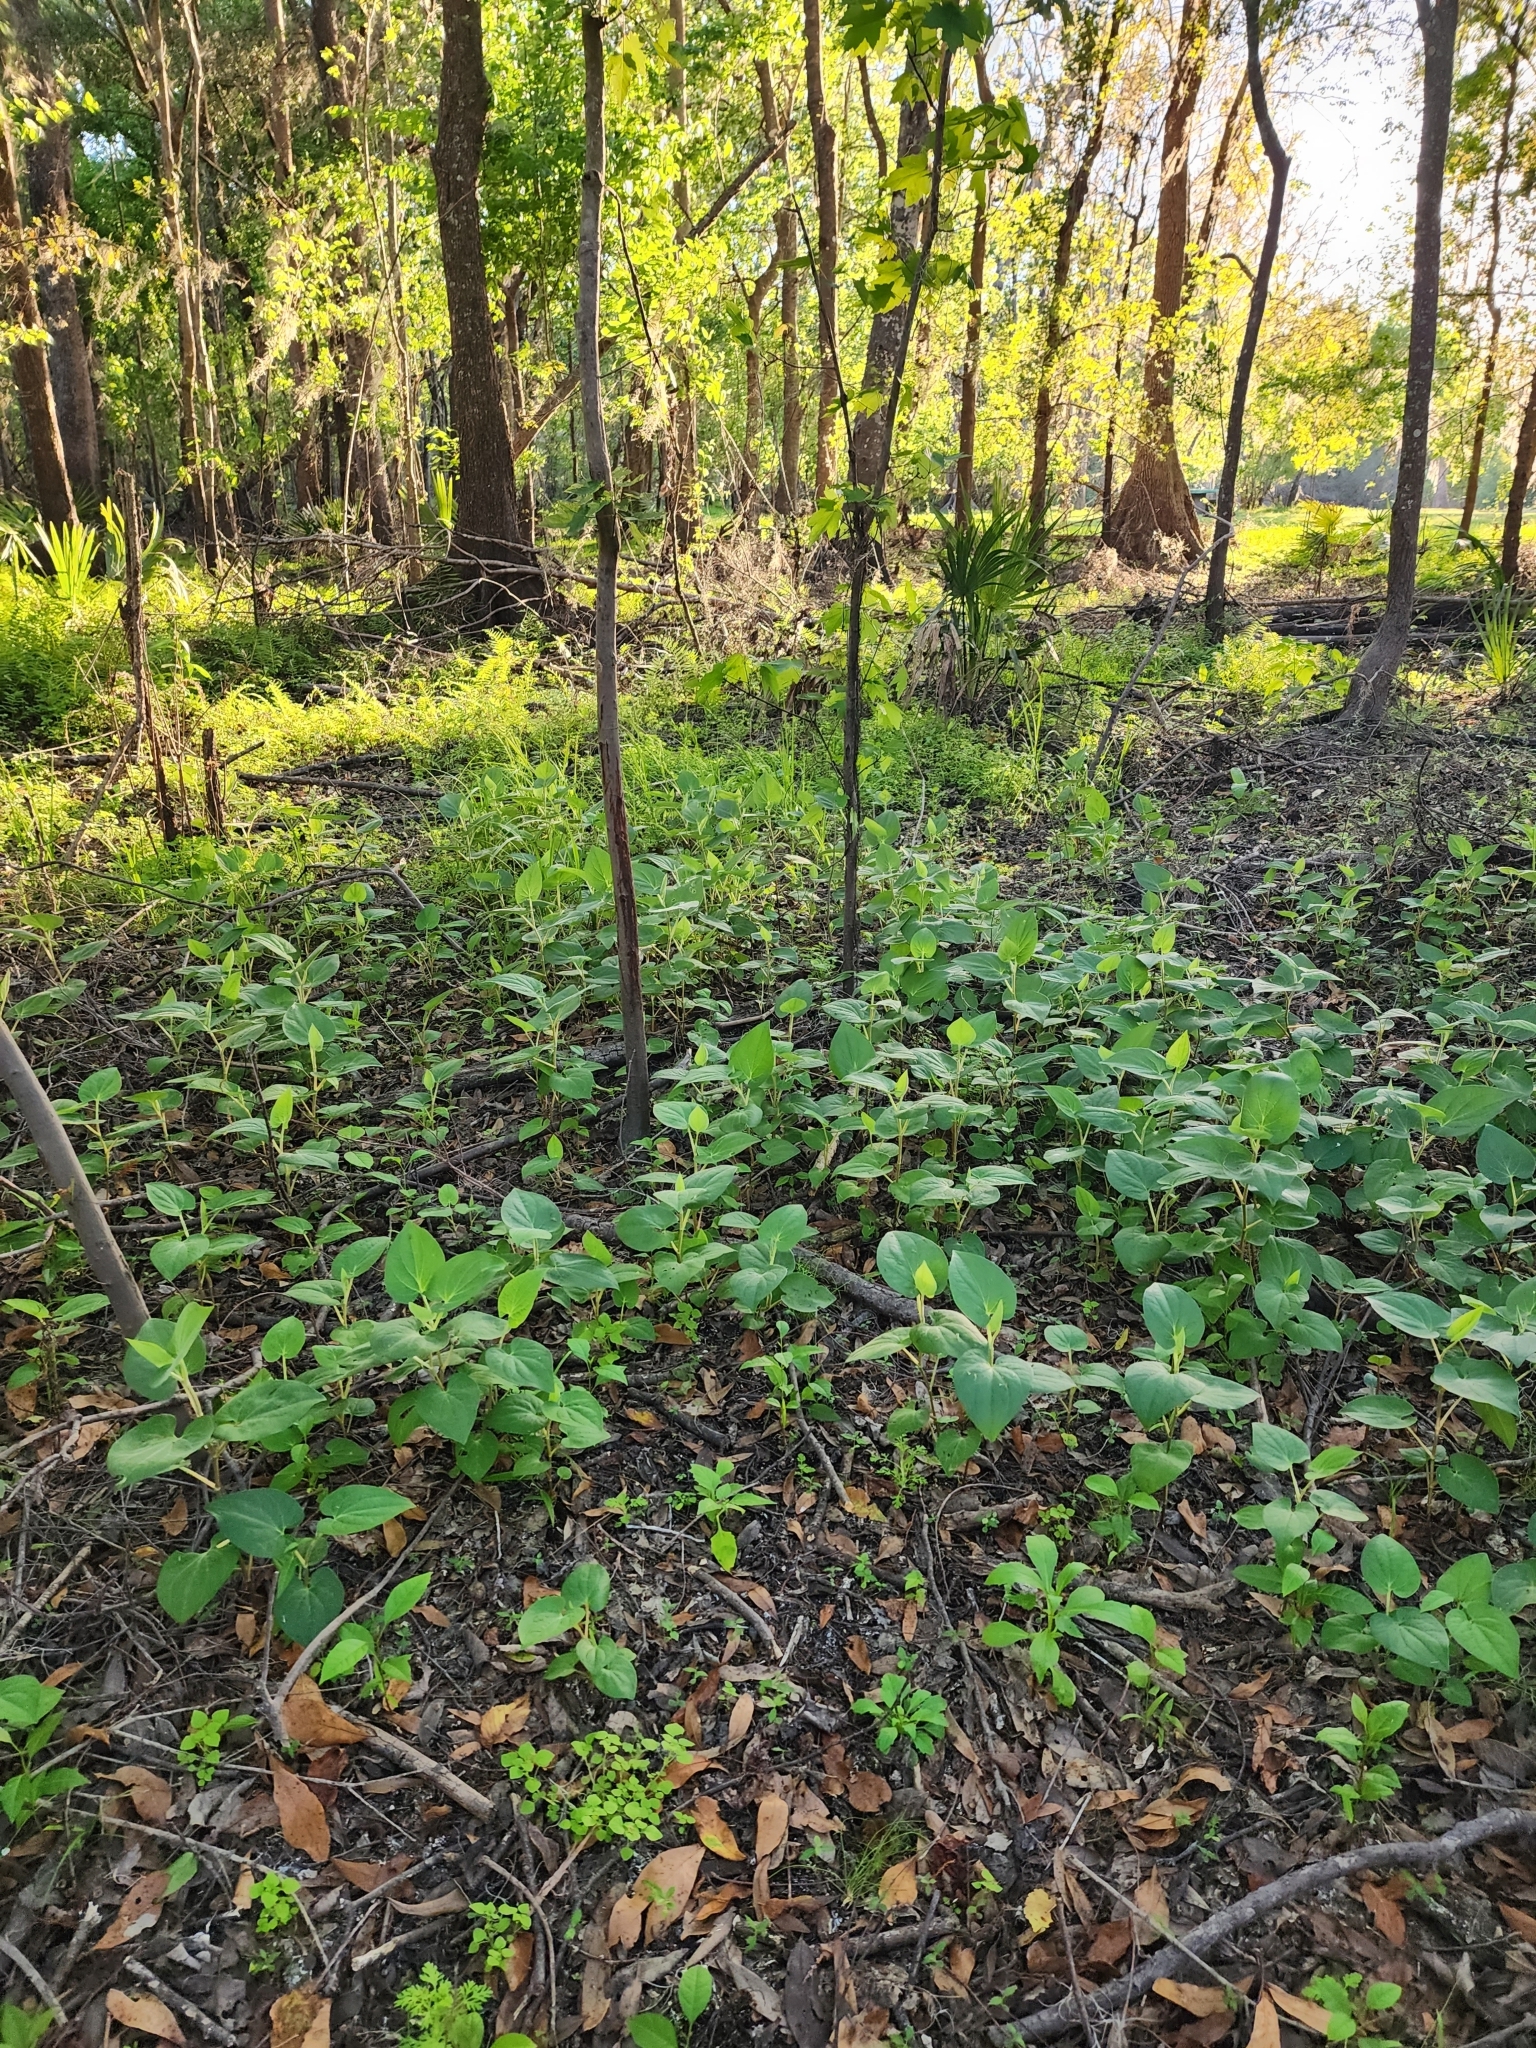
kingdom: Plantae
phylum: Tracheophyta
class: Magnoliopsida
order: Piperales
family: Saururaceae
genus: Saururus
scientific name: Saururus cernuus
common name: Lizard's-tail
